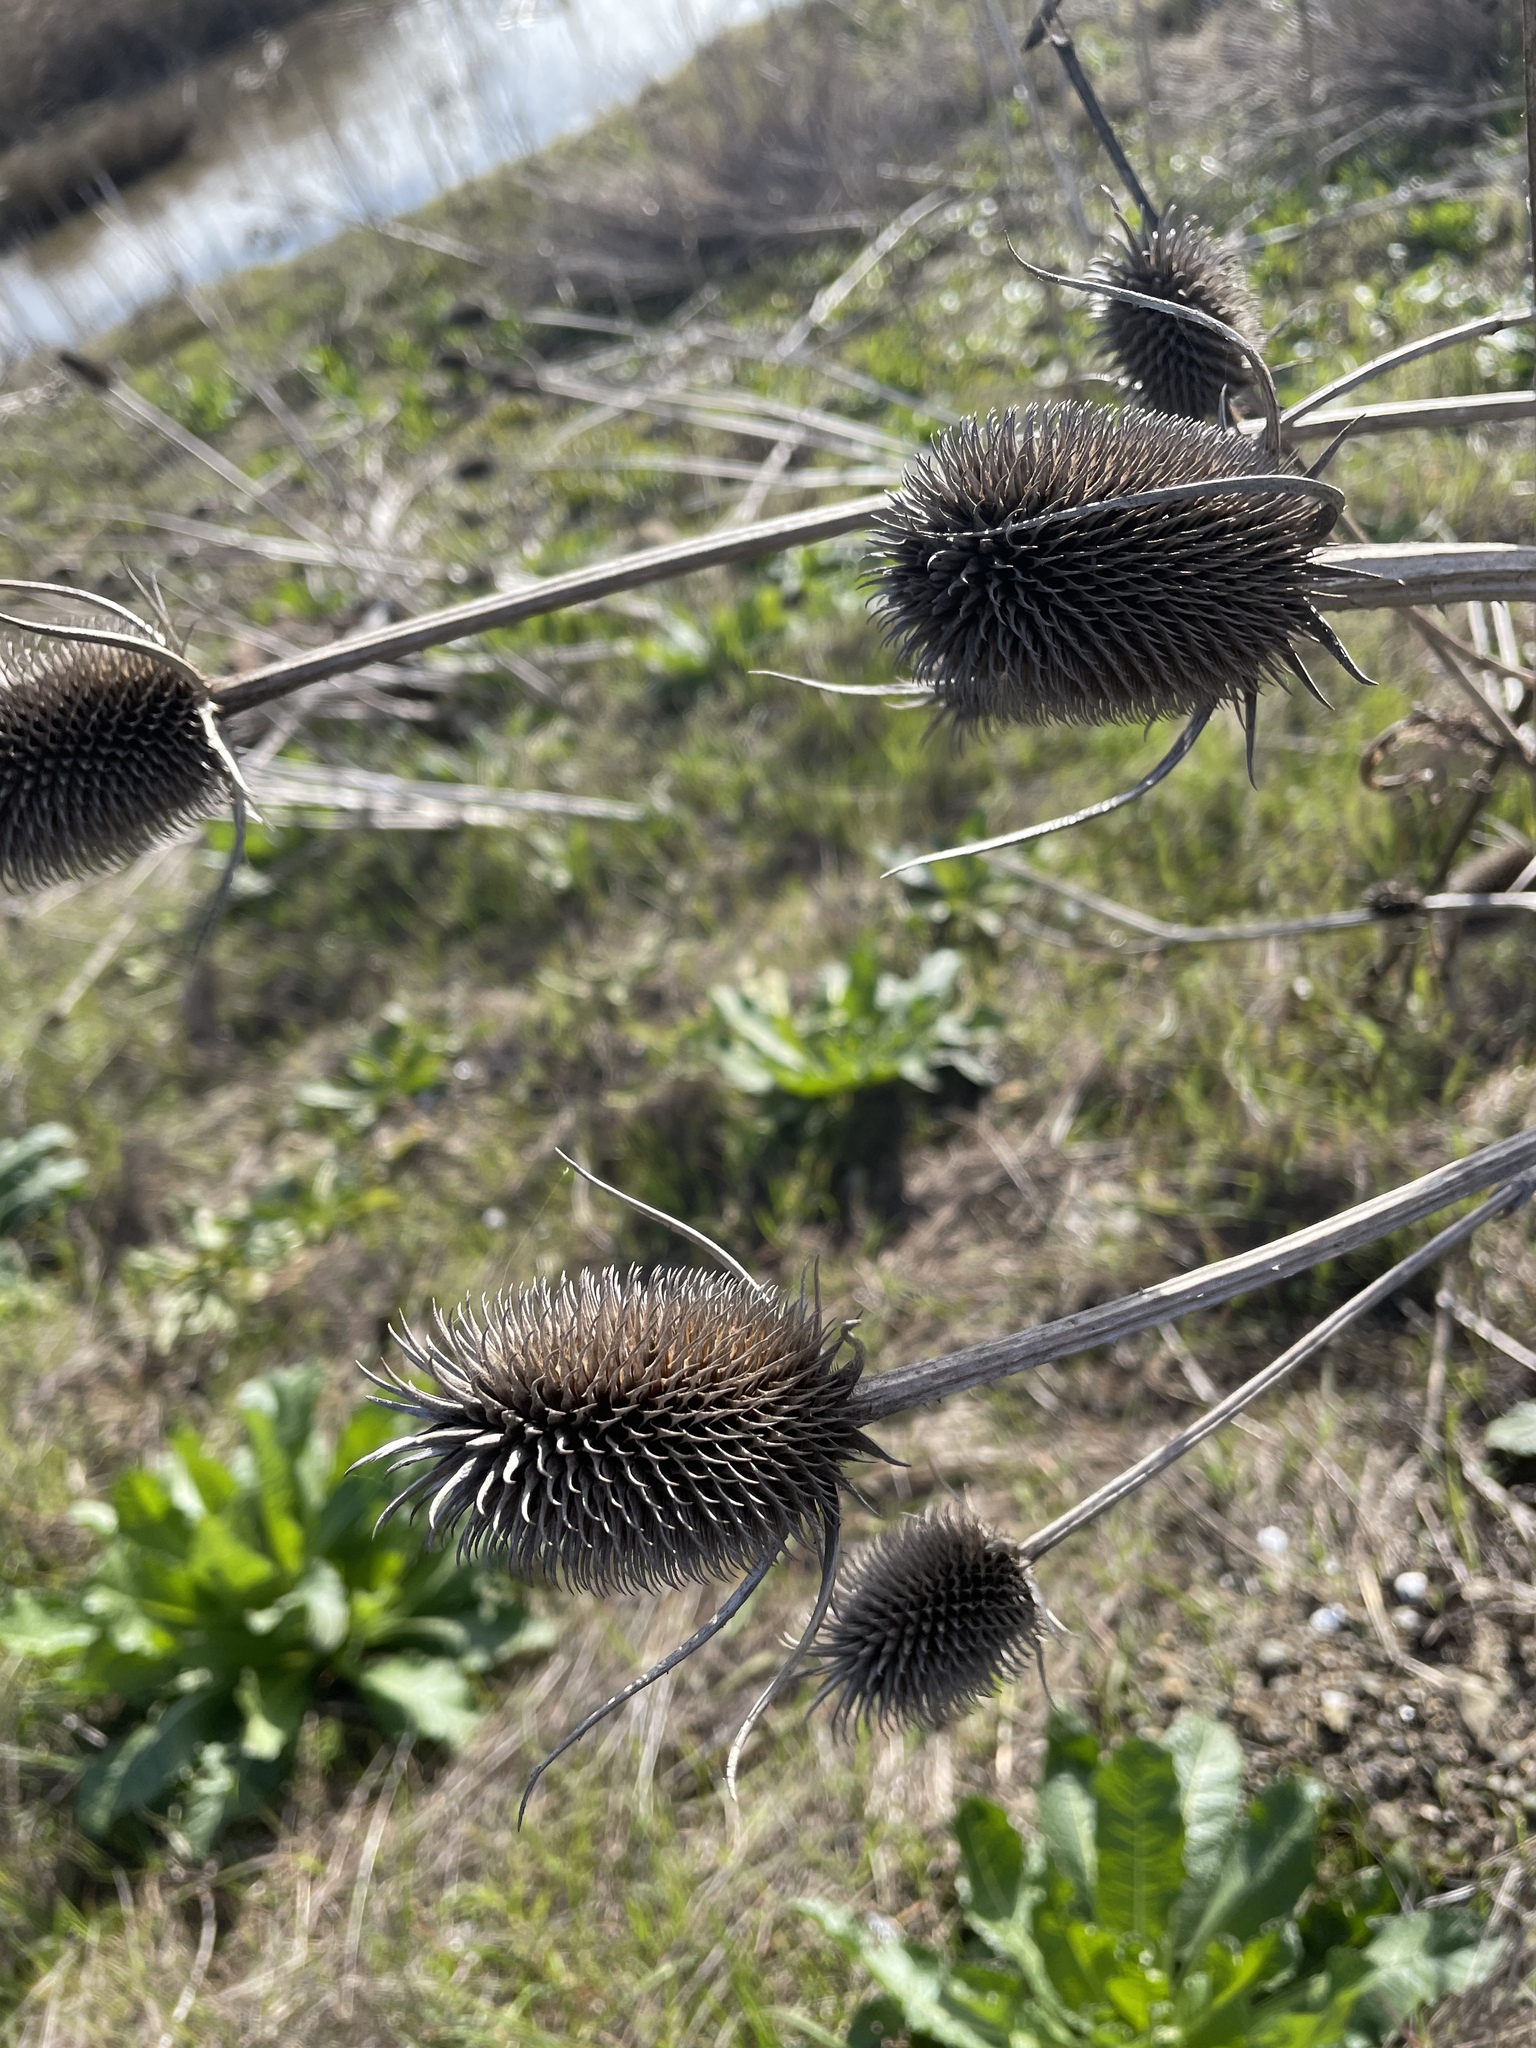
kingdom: Plantae
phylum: Tracheophyta
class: Magnoliopsida
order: Dipsacales
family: Caprifoliaceae
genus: Dipsacus
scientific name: Dipsacus sativus
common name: Fuller's teasel
